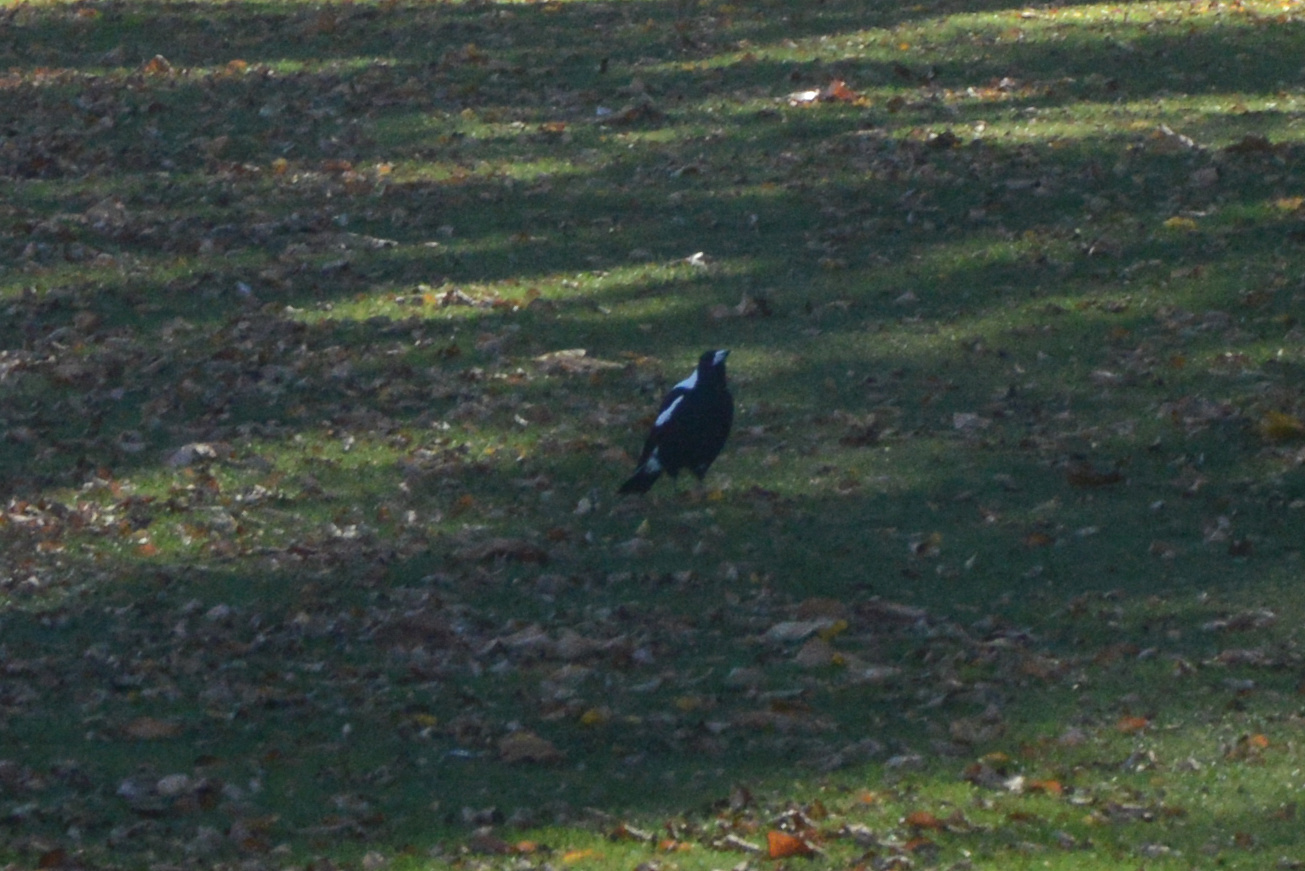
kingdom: Animalia
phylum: Chordata
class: Aves
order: Passeriformes
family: Cracticidae
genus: Gymnorhina
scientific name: Gymnorhina tibicen
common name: Australian magpie
